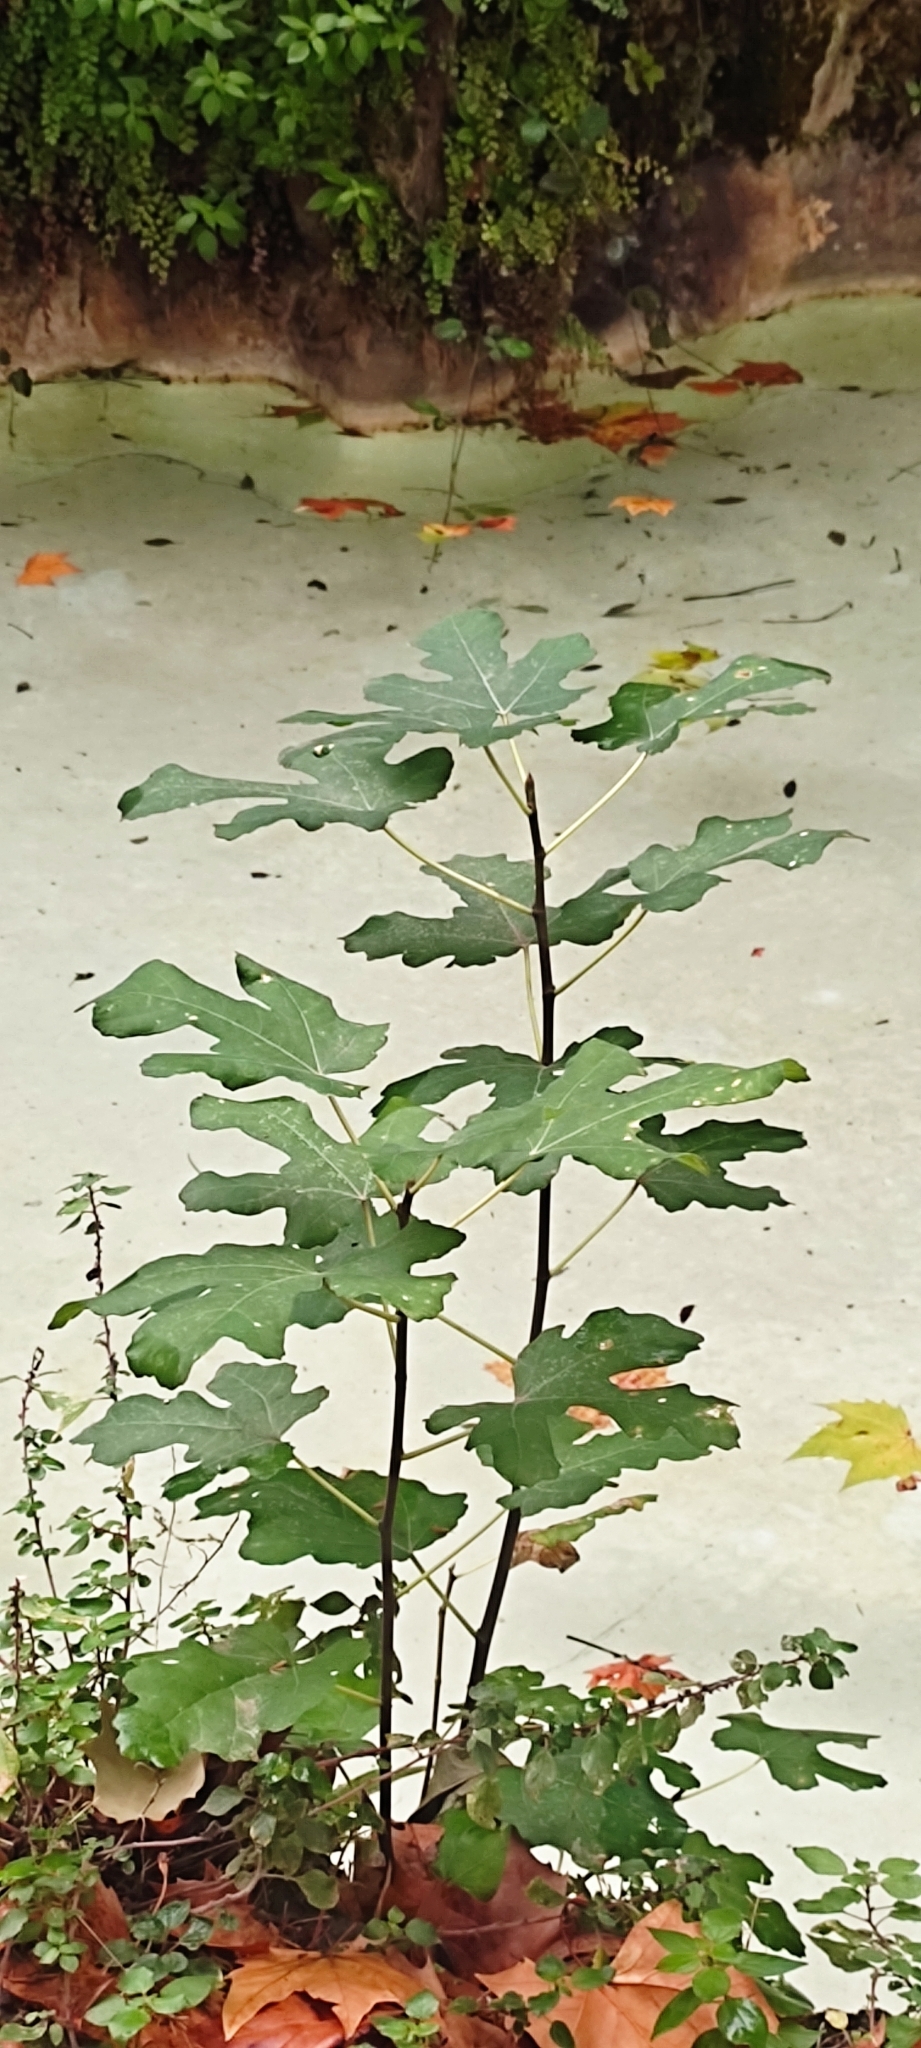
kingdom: Plantae
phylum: Tracheophyta
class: Magnoliopsida
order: Rosales
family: Moraceae
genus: Ficus
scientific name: Ficus carica
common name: Fig
